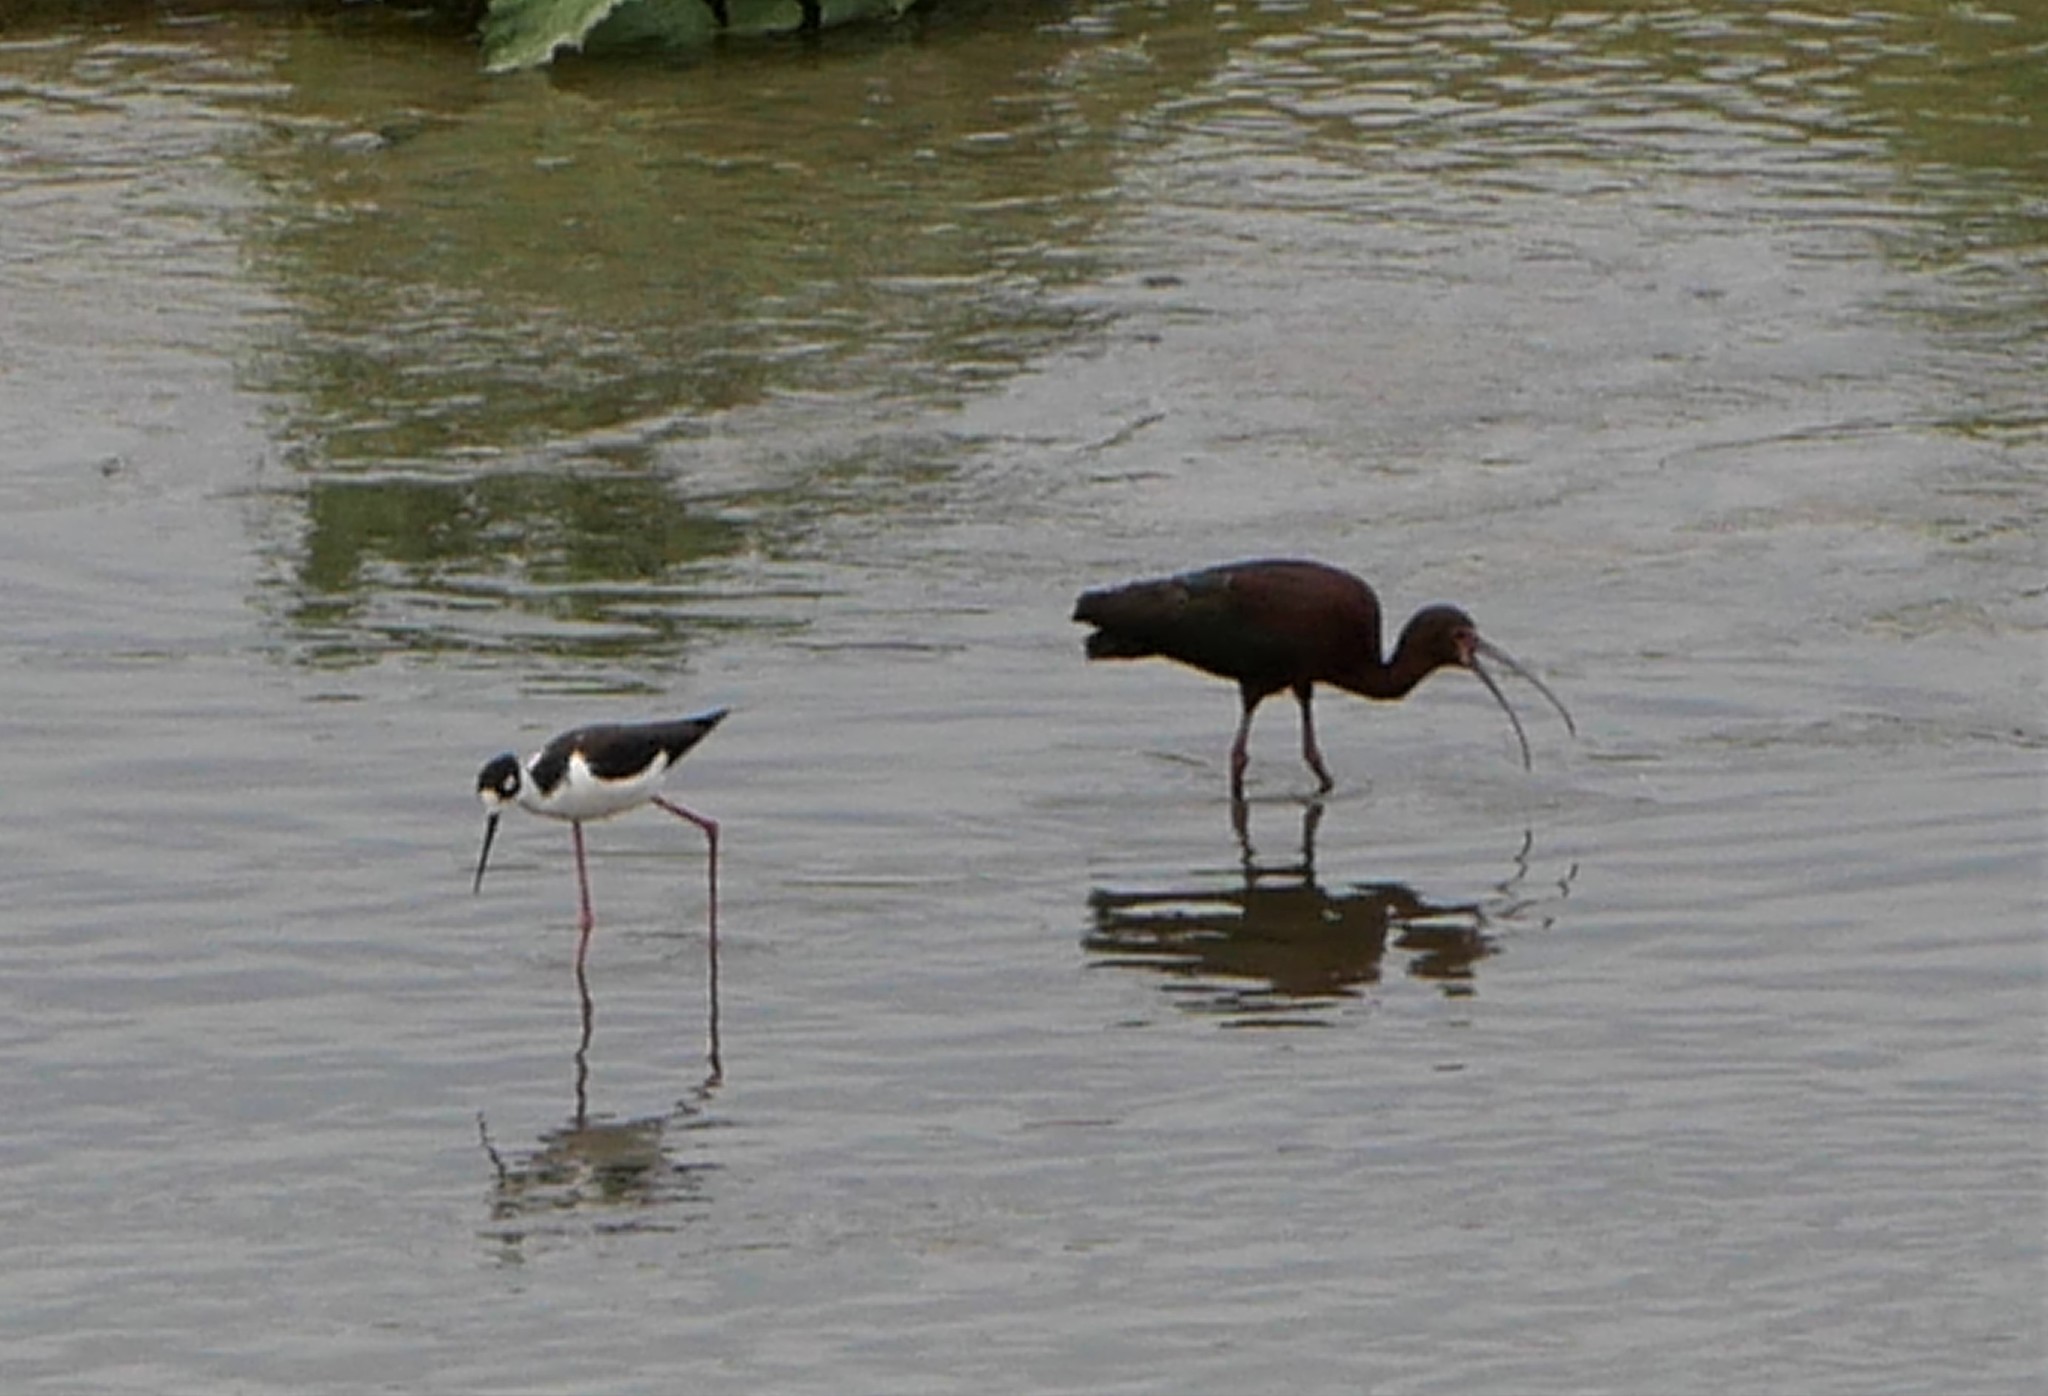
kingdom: Animalia
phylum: Chordata
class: Aves
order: Pelecaniformes
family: Threskiornithidae
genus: Plegadis
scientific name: Plegadis chihi
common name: White-faced ibis
